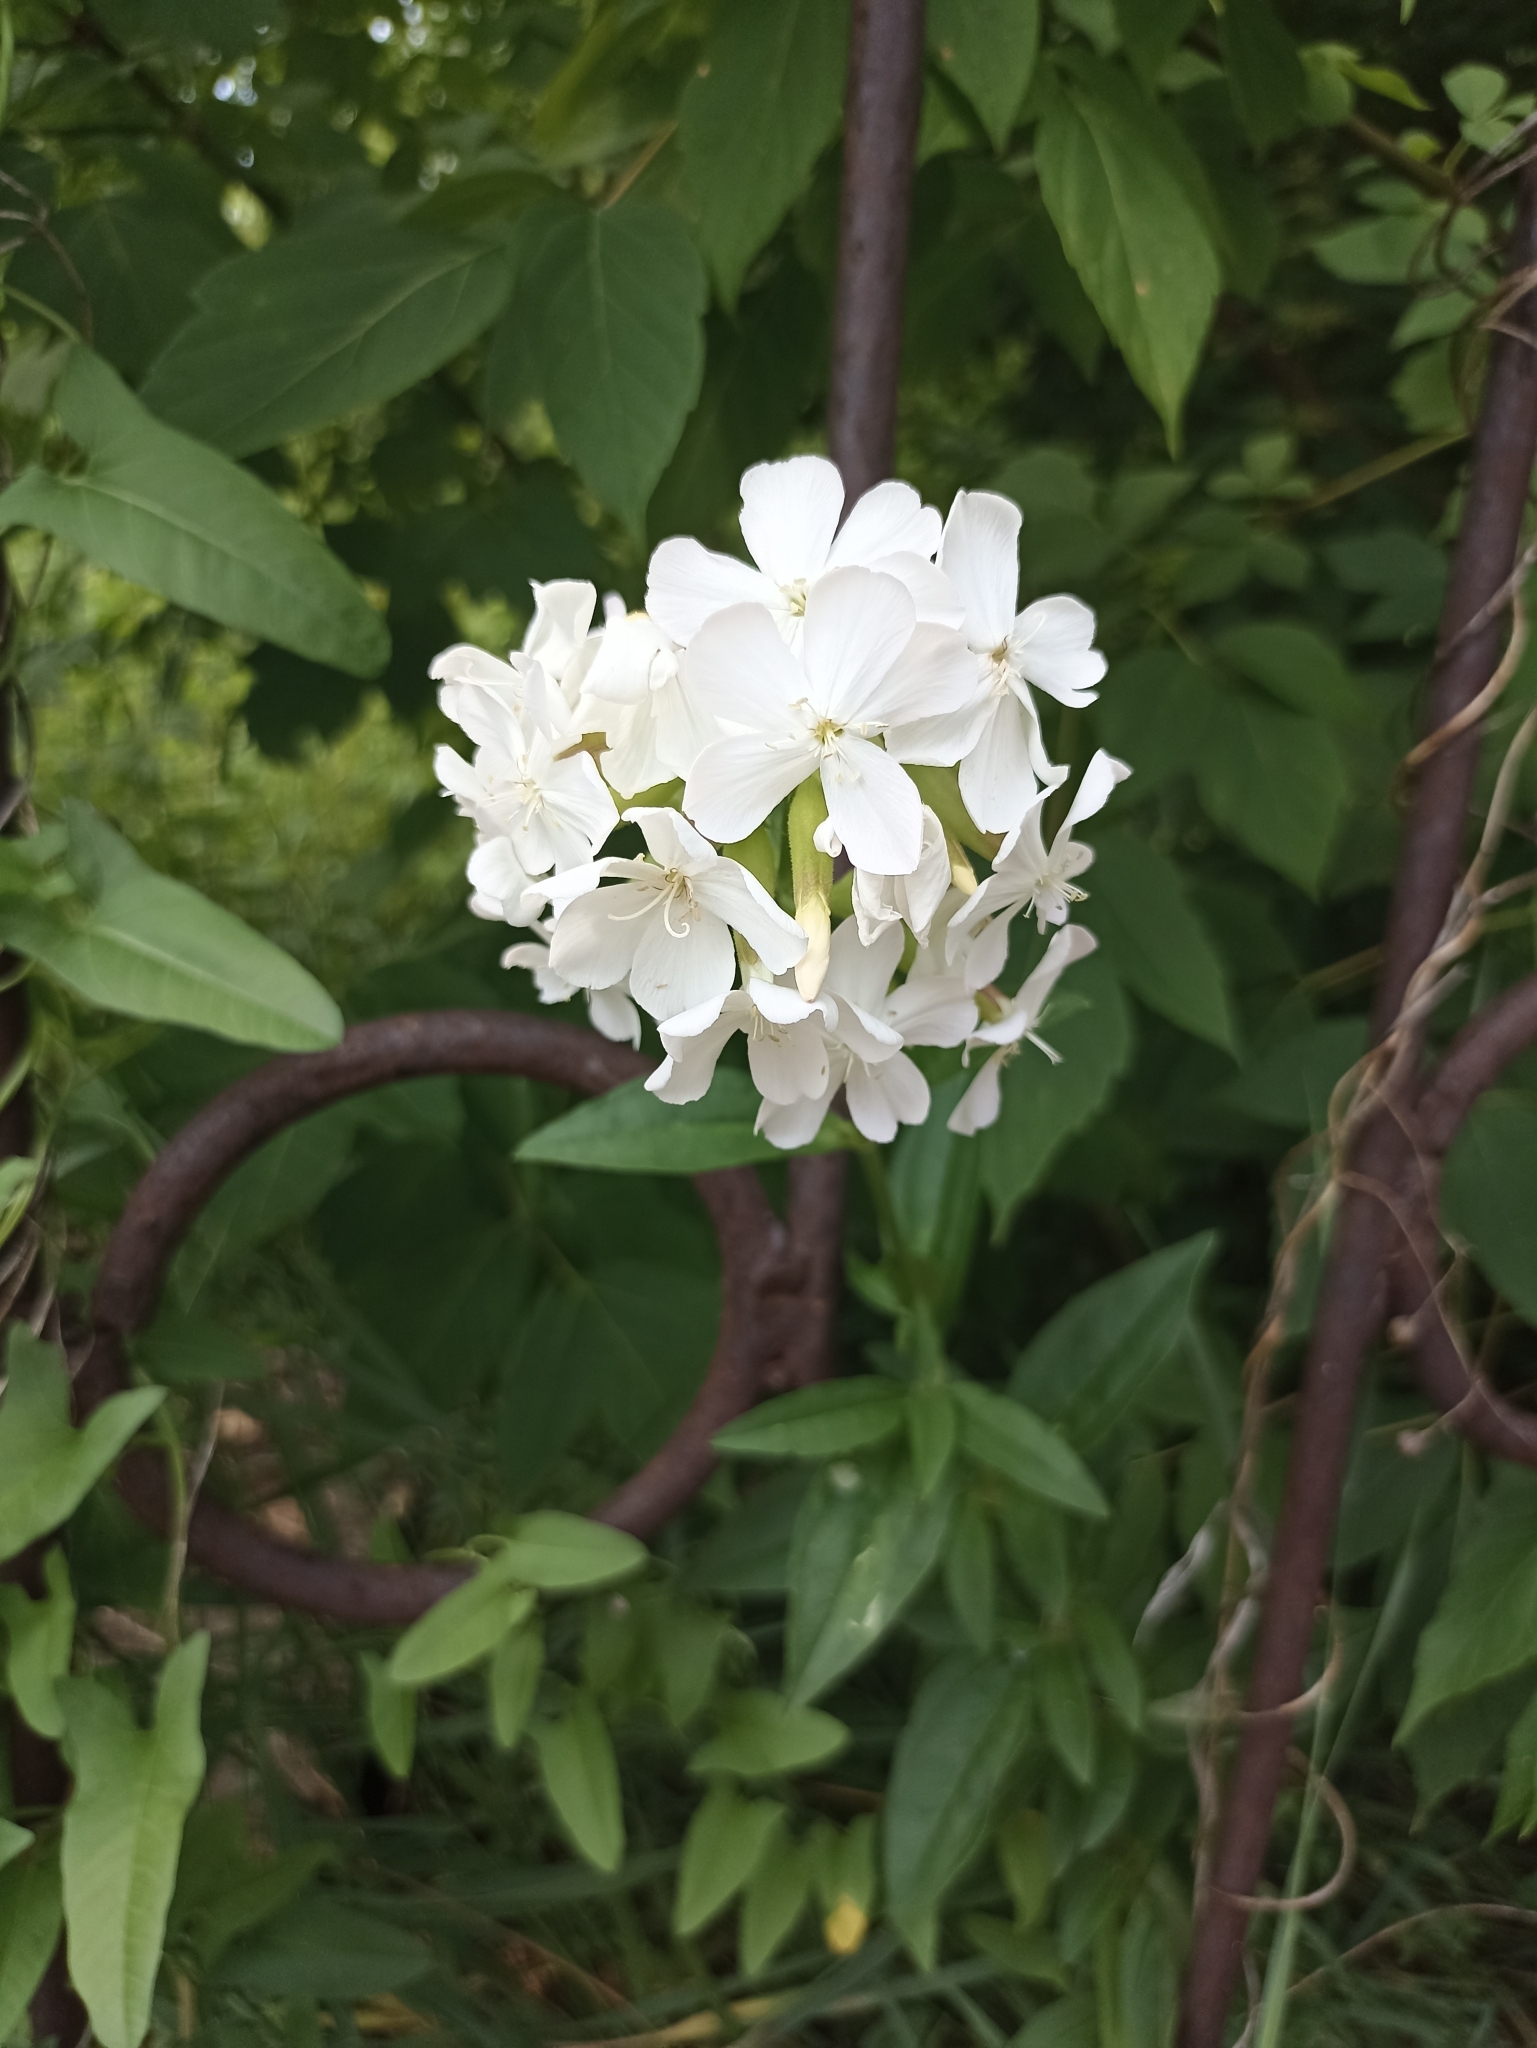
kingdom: Plantae
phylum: Tracheophyta
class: Magnoliopsida
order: Caryophyllales
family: Caryophyllaceae
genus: Saponaria
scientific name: Saponaria officinalis
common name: Soapwort
